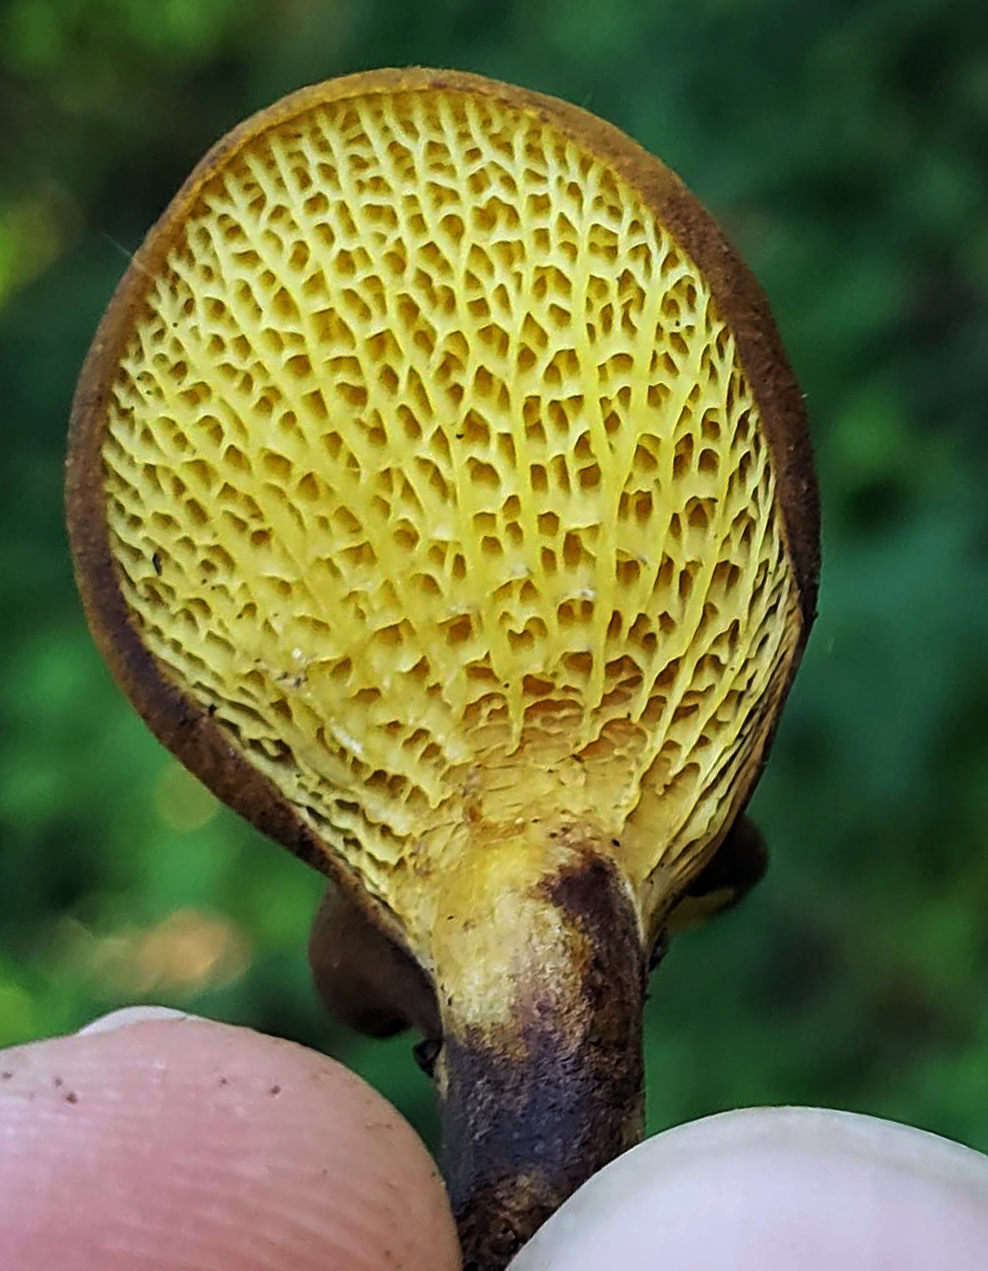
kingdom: Fungi
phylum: Basidiomycota
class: Agaricomycetes
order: Boletales
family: Boletinellaceae
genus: Boletinellus
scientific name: Boletinellus merulioides
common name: Ash tree bolete
